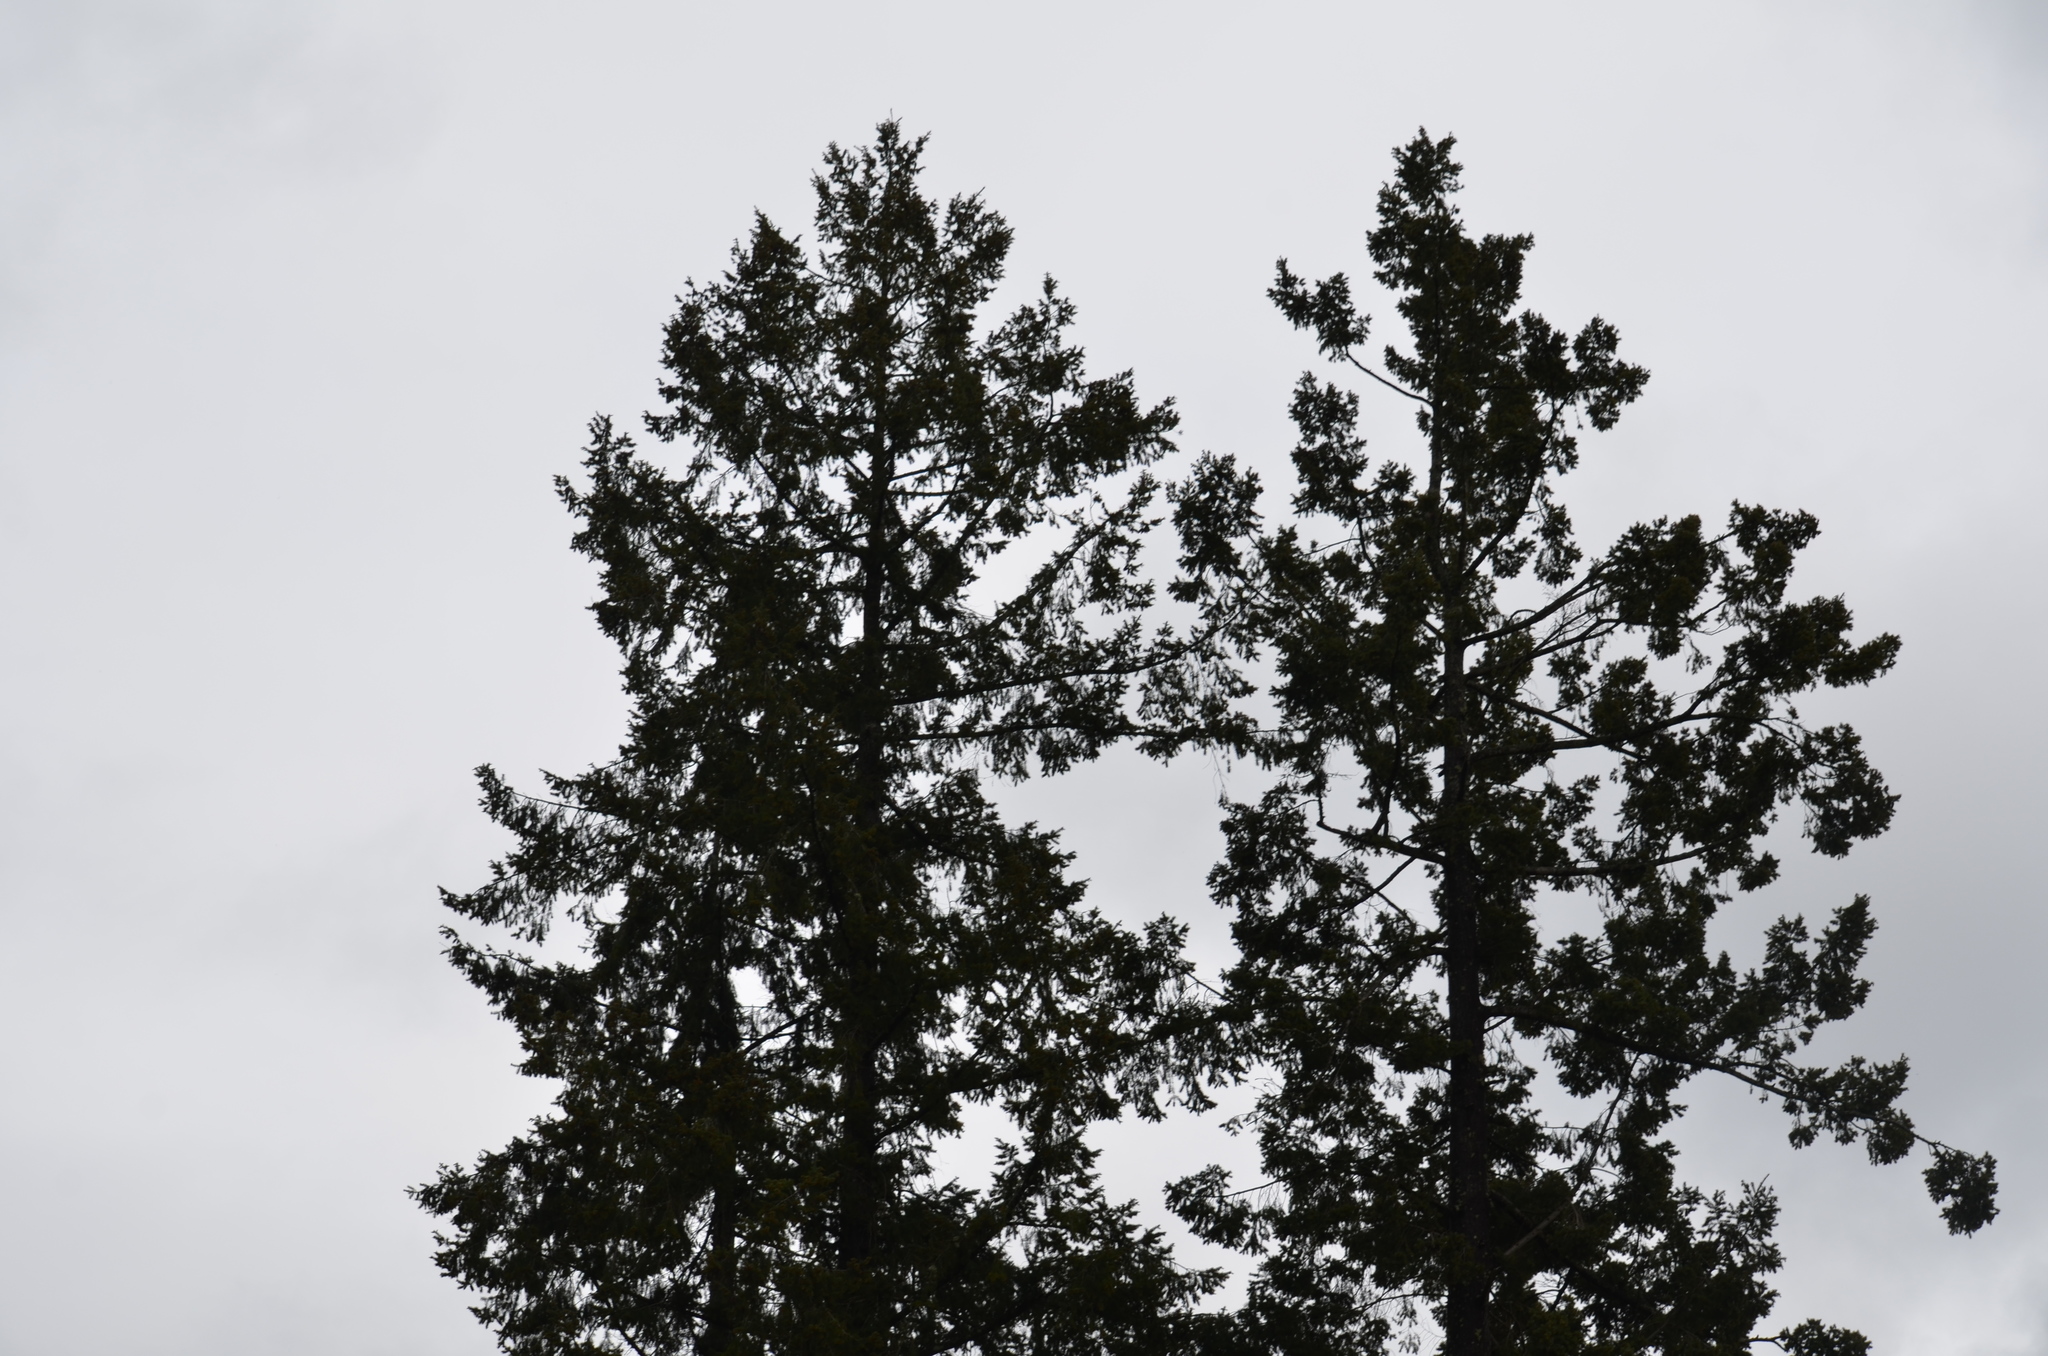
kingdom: Plantae
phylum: Tracheophyta
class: Pinopsida
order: Pinales
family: Pinaceae
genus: Pseudotsuga
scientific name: Pseudotsuga menziesii
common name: Douglas fir
